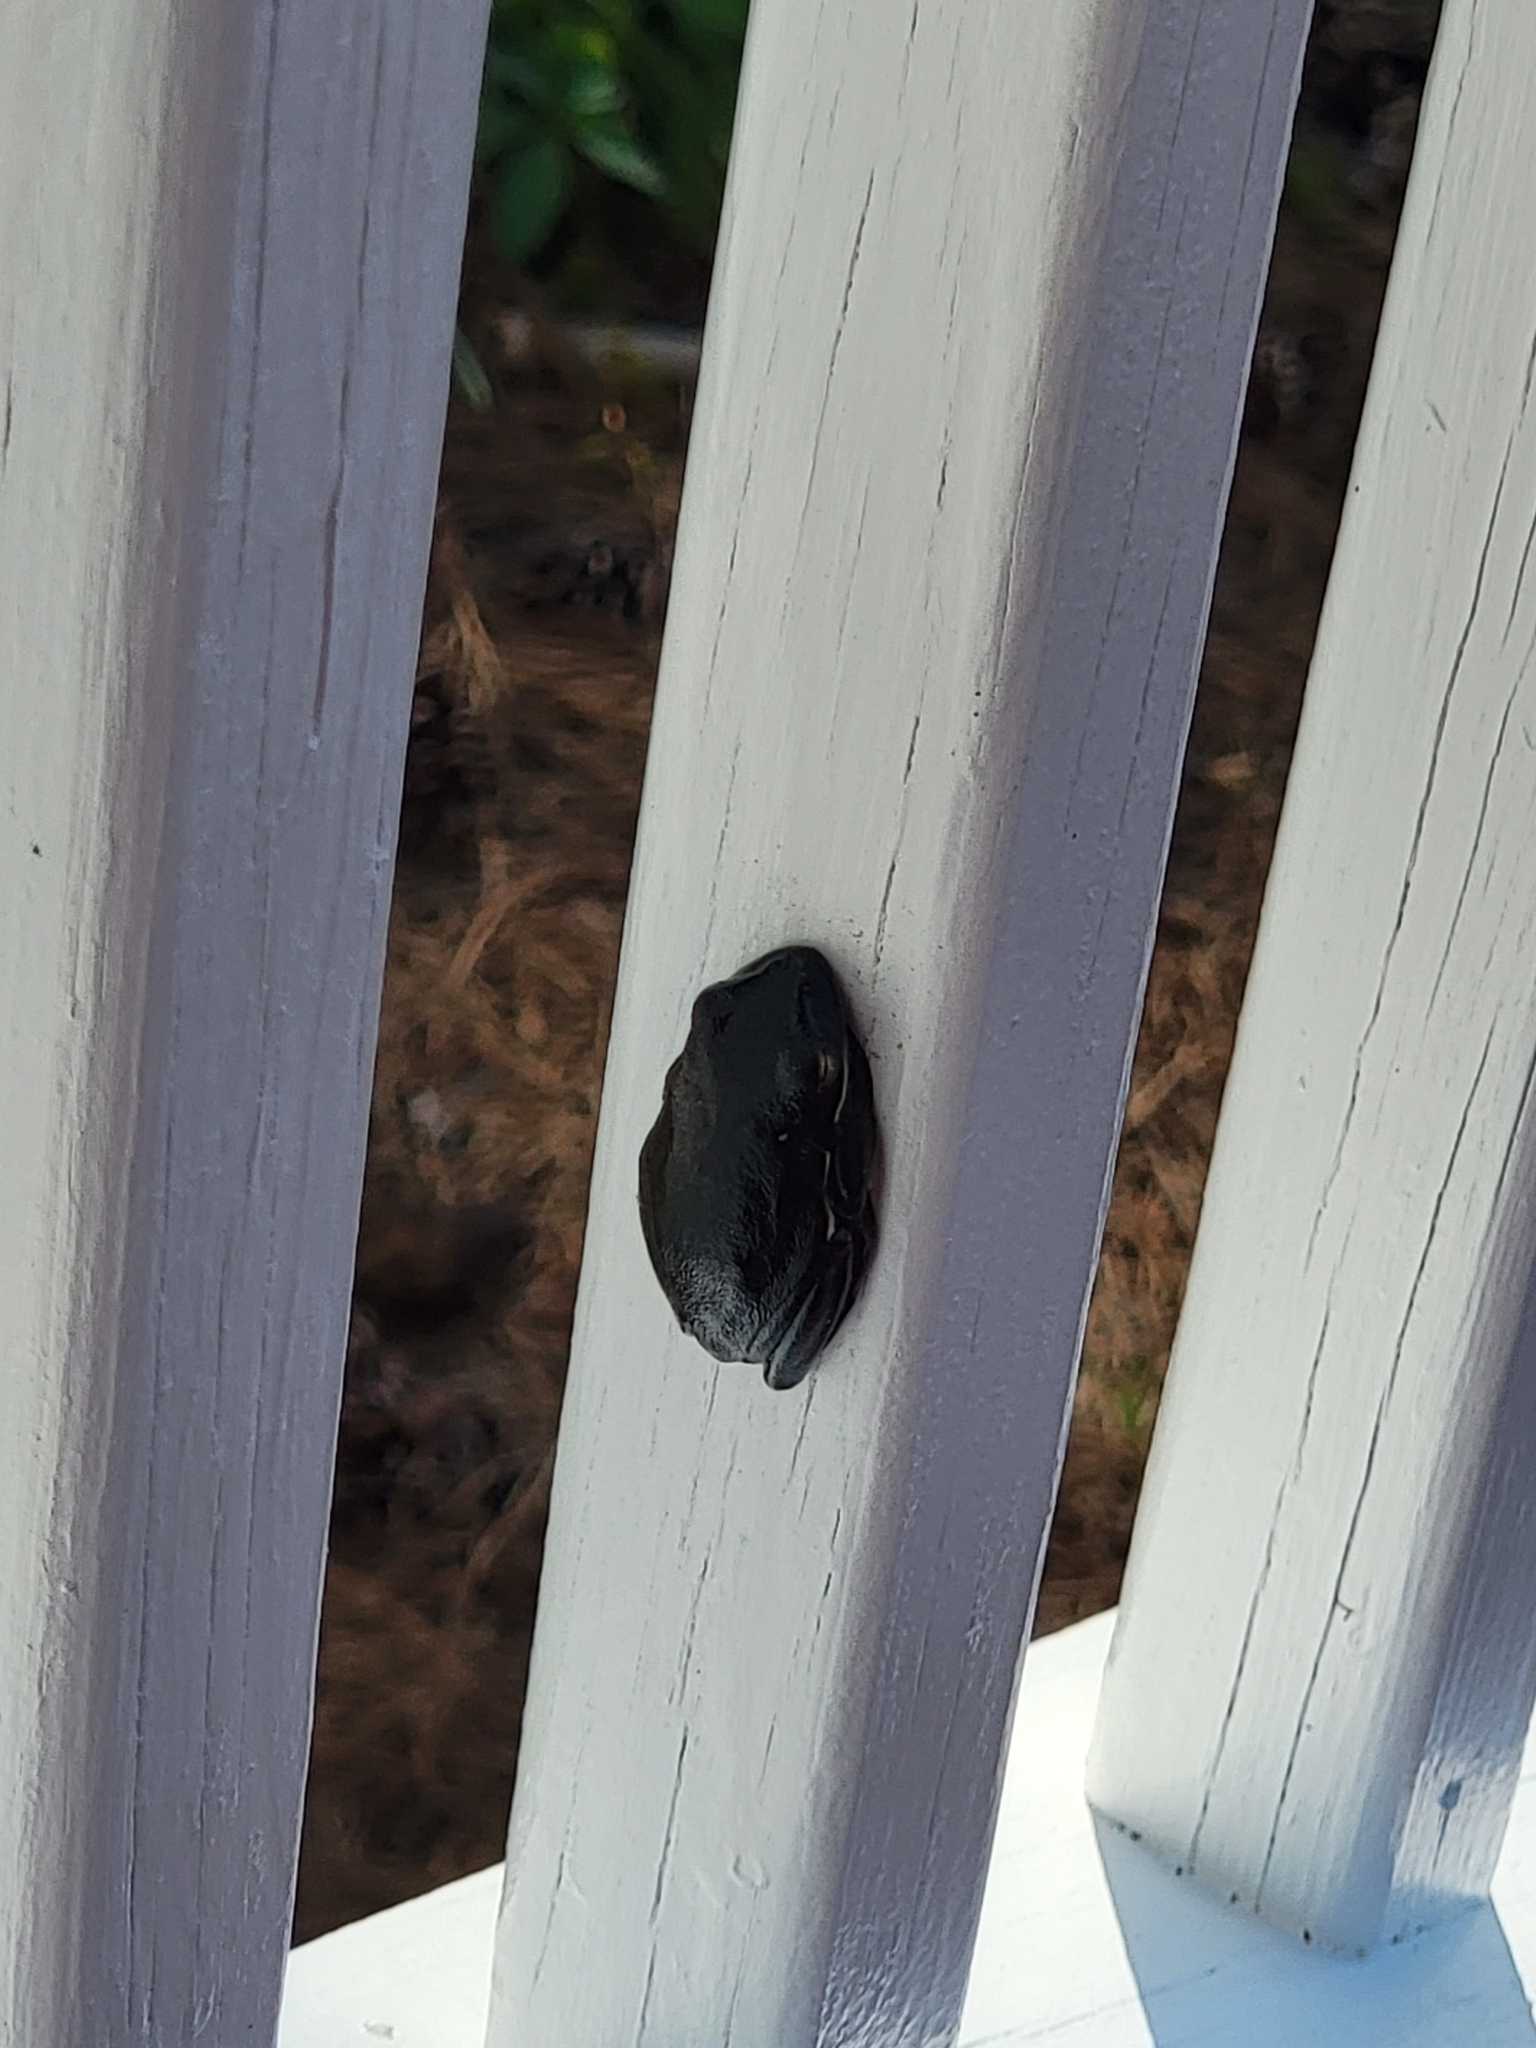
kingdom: Animalia
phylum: Chordata
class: Amphibia
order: Anura
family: Hylidae
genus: Dryophytes
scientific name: Dryophytes cinereus
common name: Green treefrog
